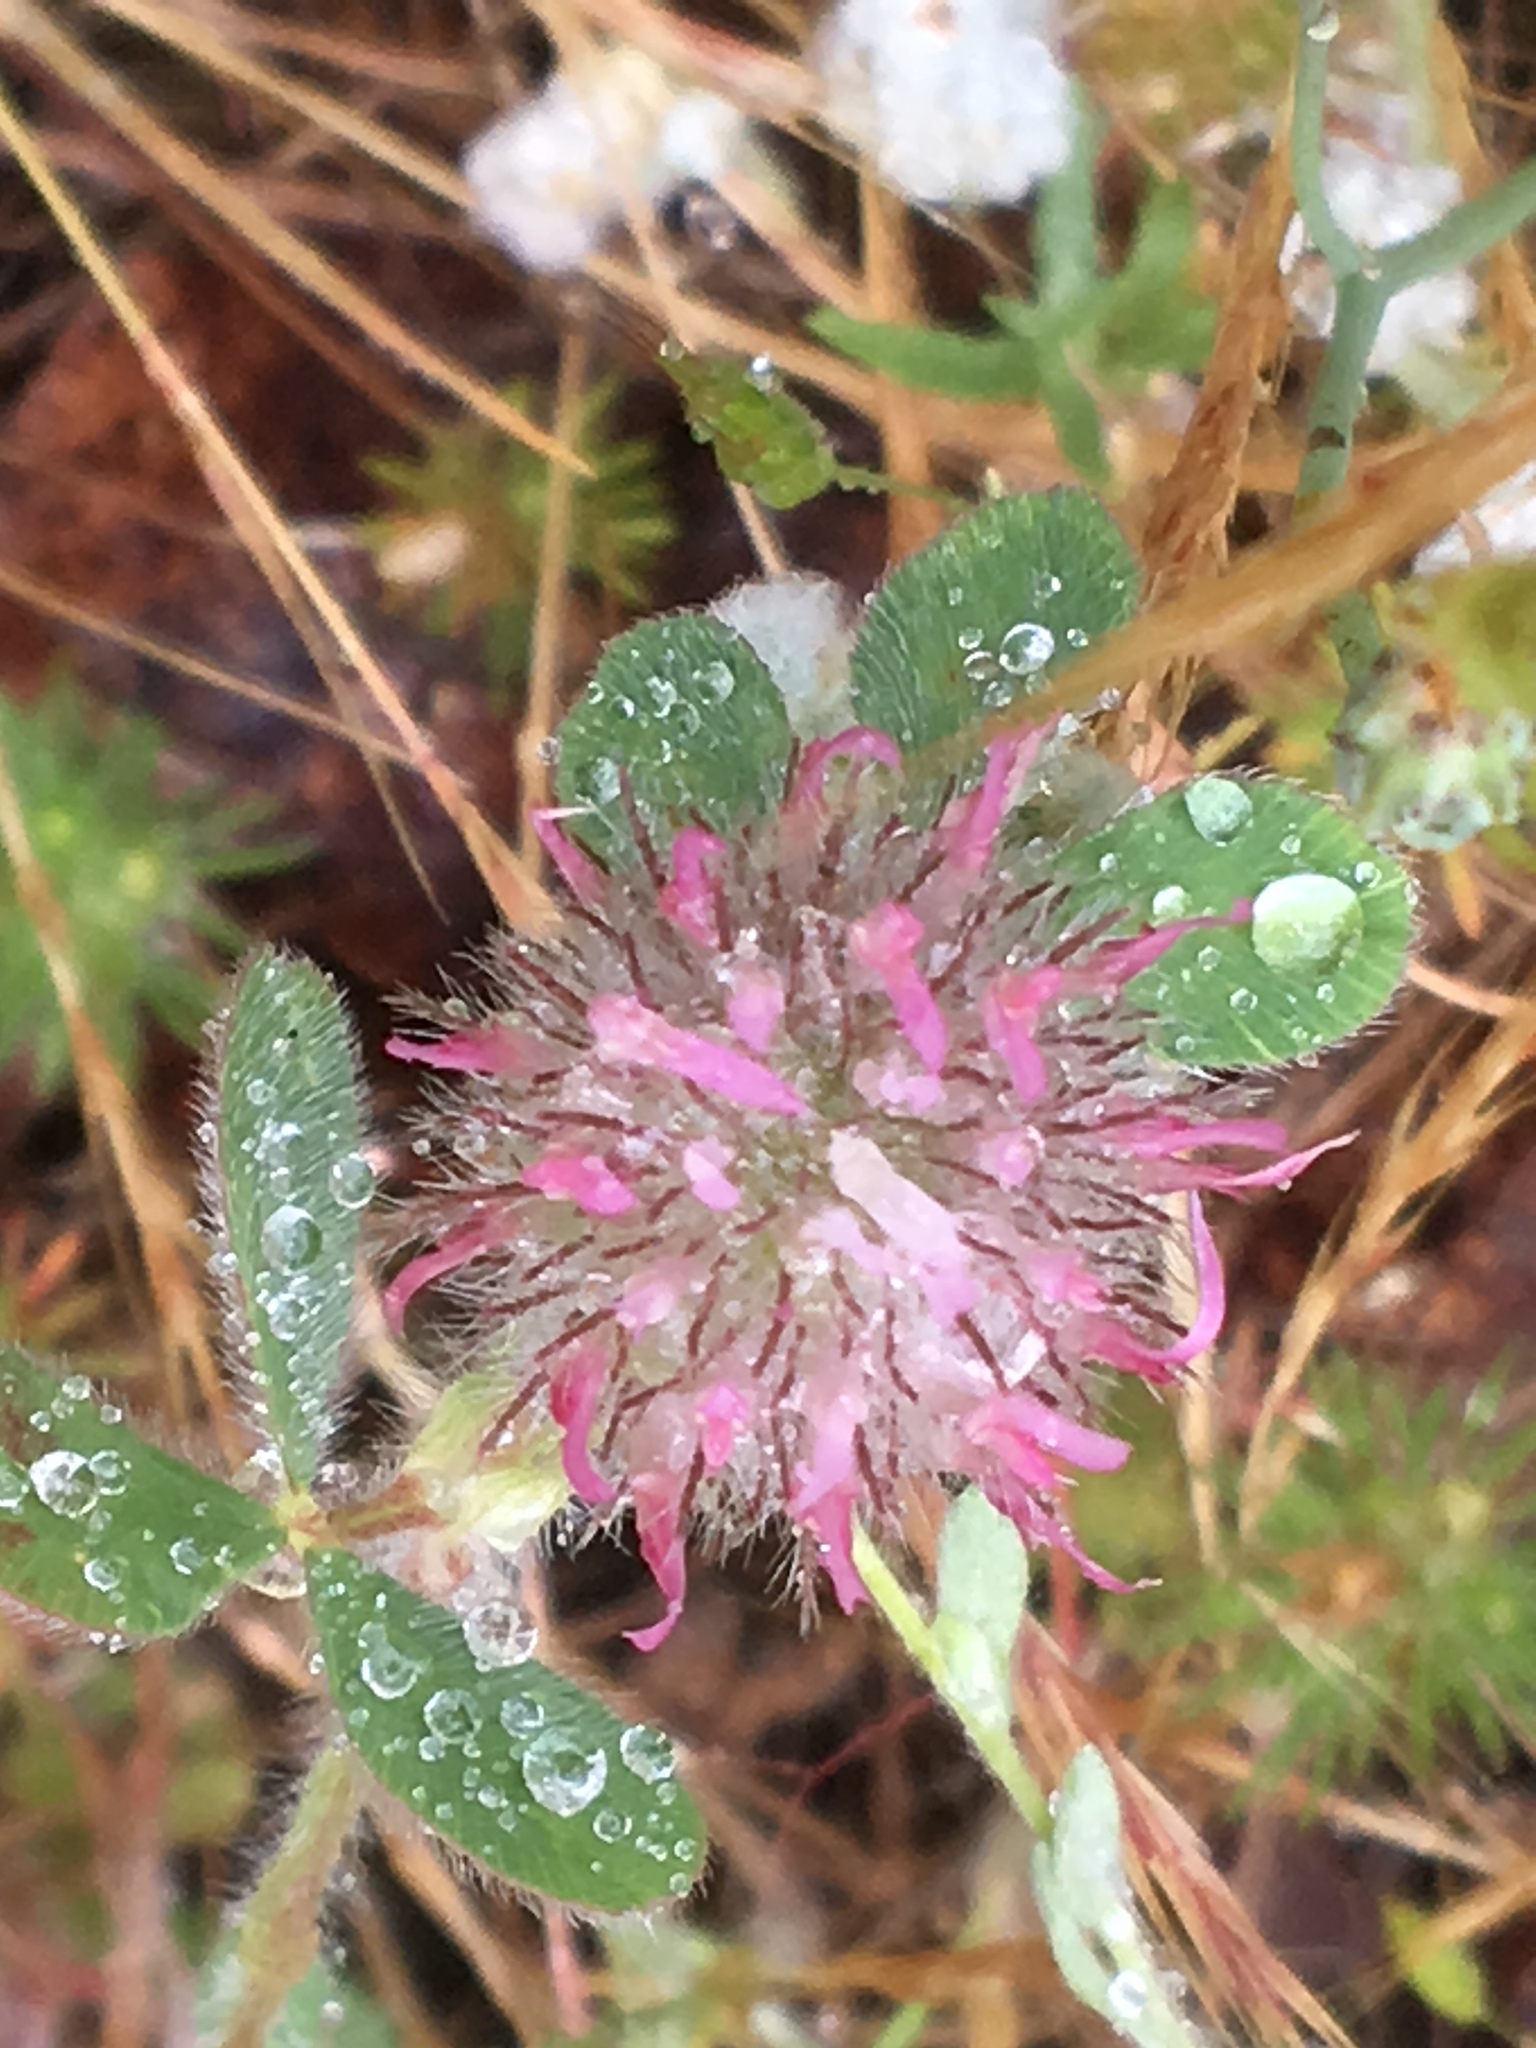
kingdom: Plantae
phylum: Tracheophyta
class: Magnoliopsida
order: Fabales
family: Fabaceae
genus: Trifolium
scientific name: Trifolium hirtum
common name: Rose clover
